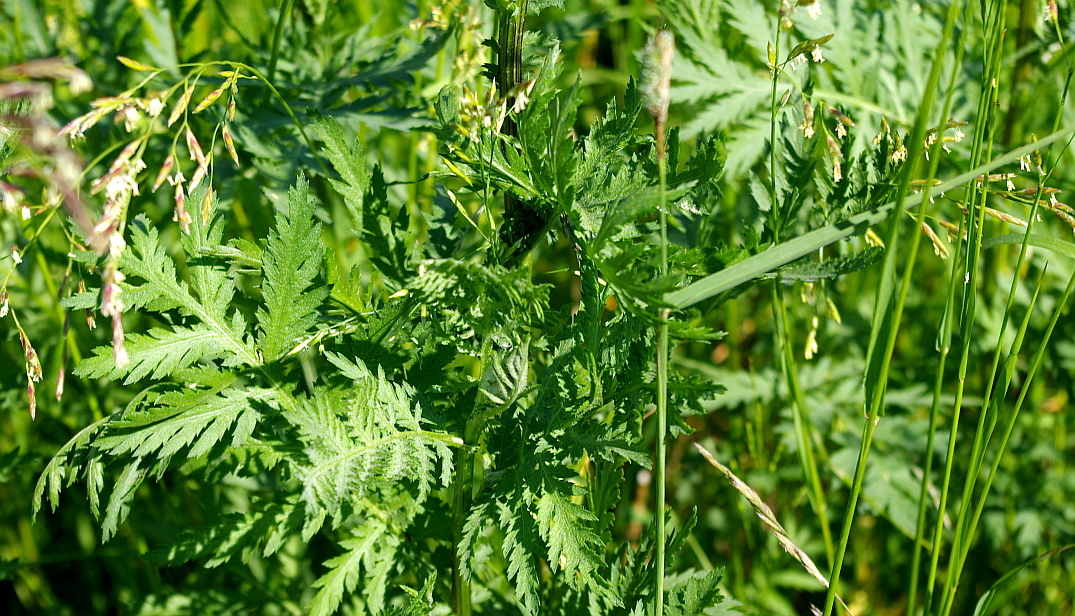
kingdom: Plantae
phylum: Tracheophyta
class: Magnoliopsida
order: Asterales
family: Asteraceae
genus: Tanacetum
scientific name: Tanacetum vulgare
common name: Common tansy
